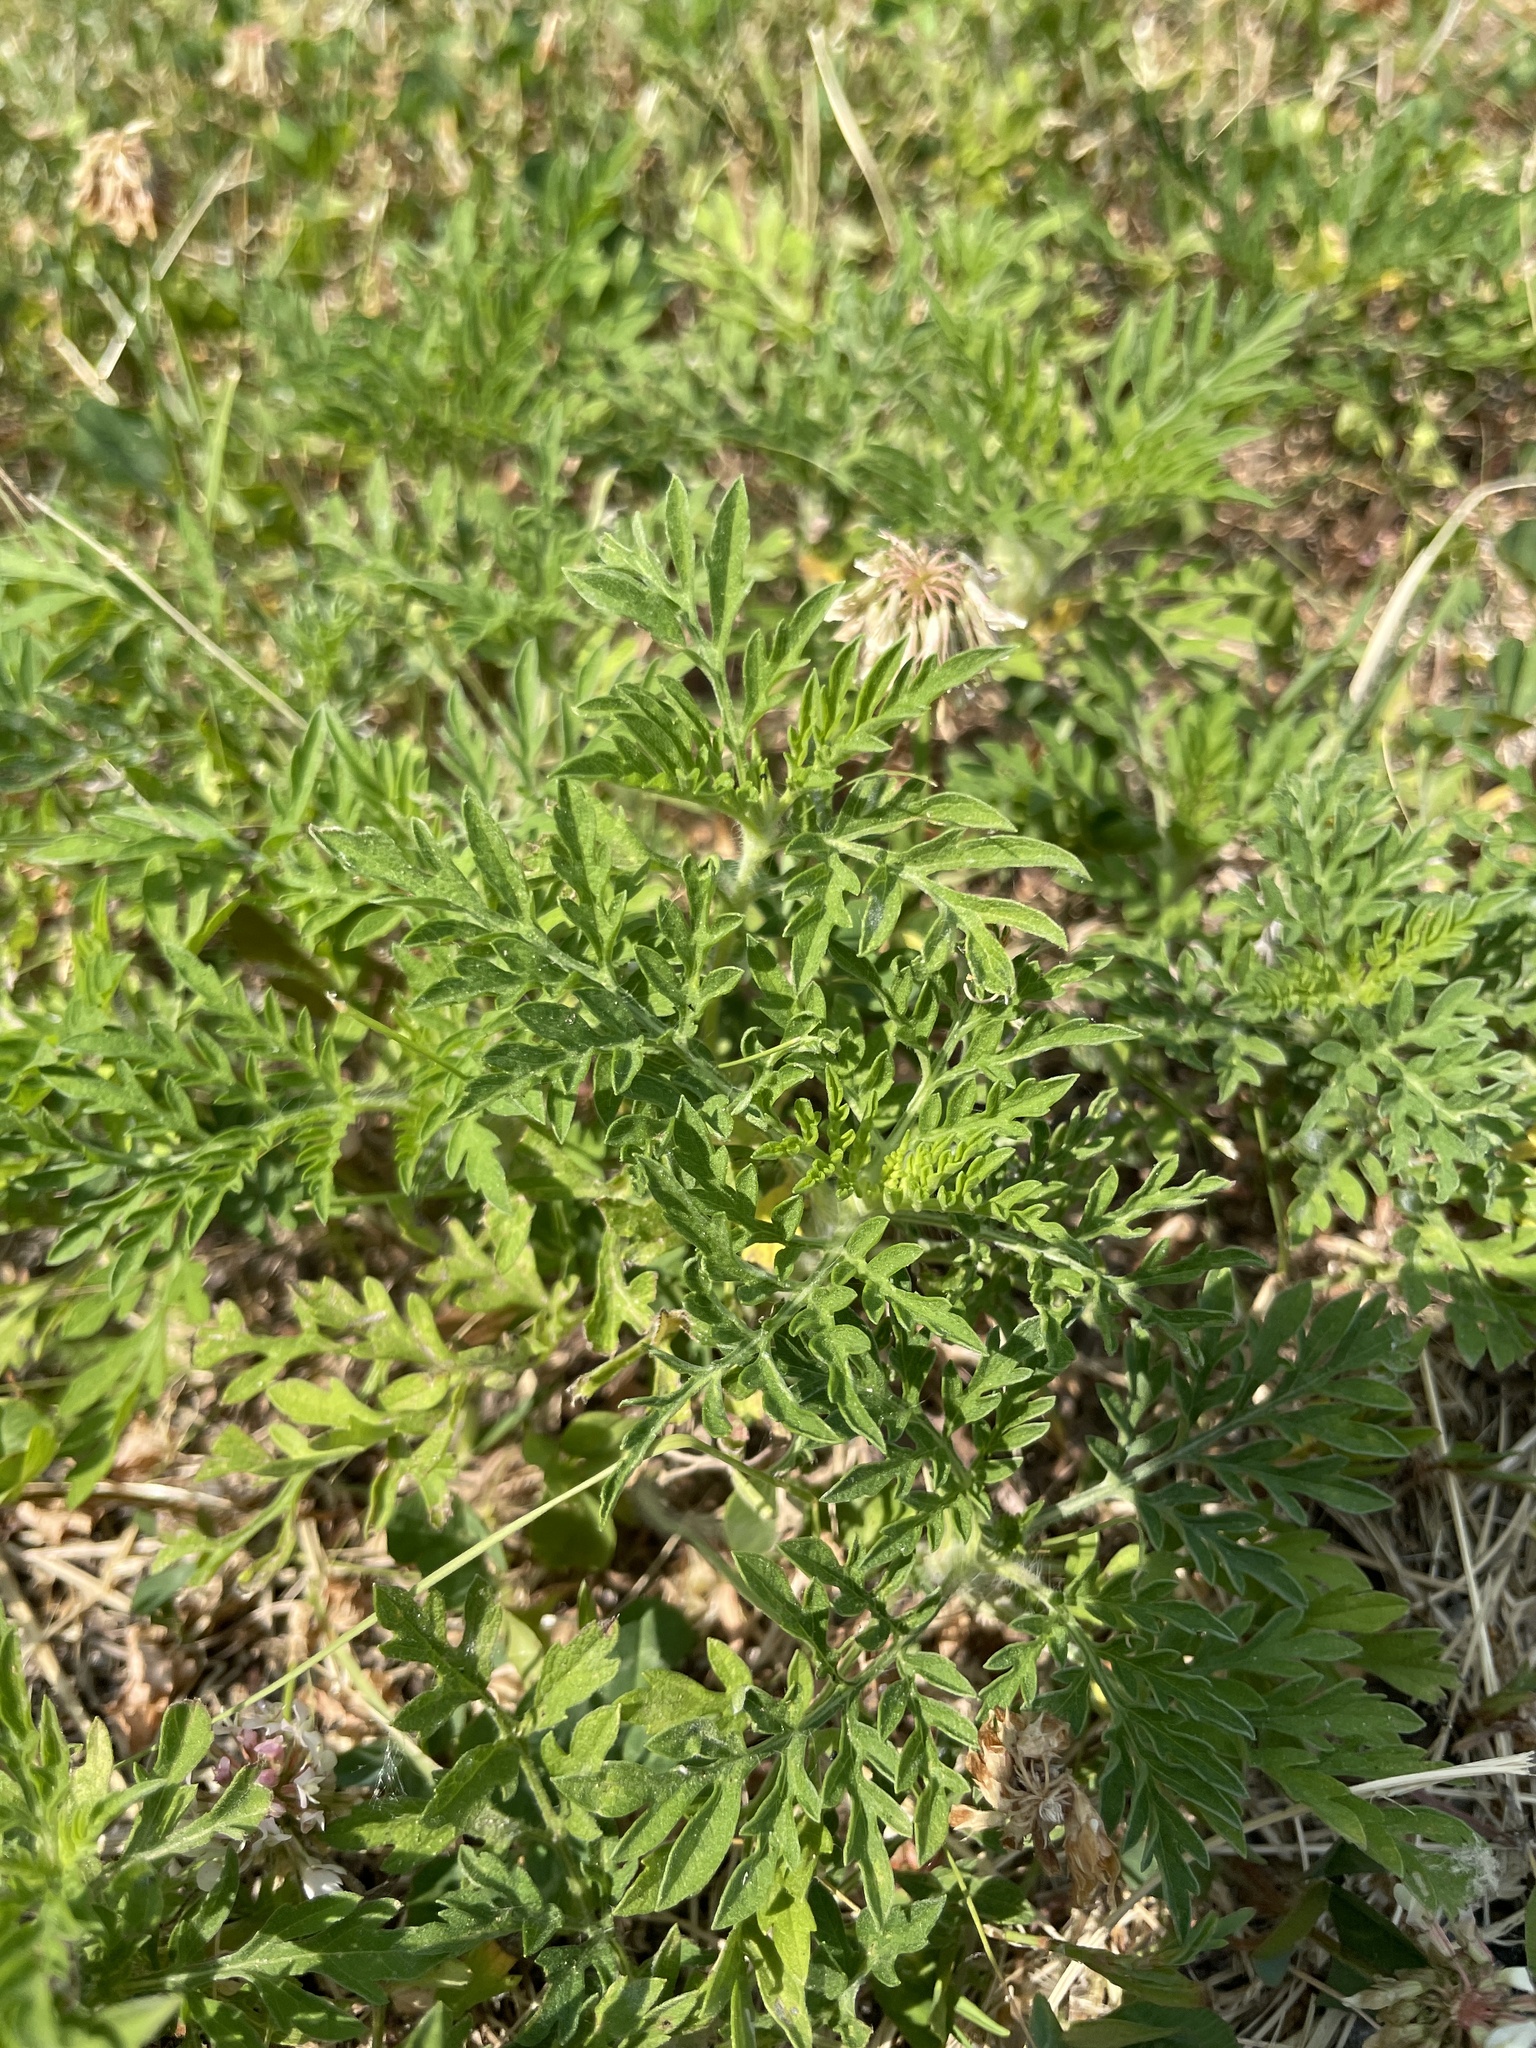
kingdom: Plantae
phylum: Tracheophyta
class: Magnoliopsida
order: Asterales
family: Asteraceae
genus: Ambrosia
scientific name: Ambrosia artemisiifolia
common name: Annual ragweed
